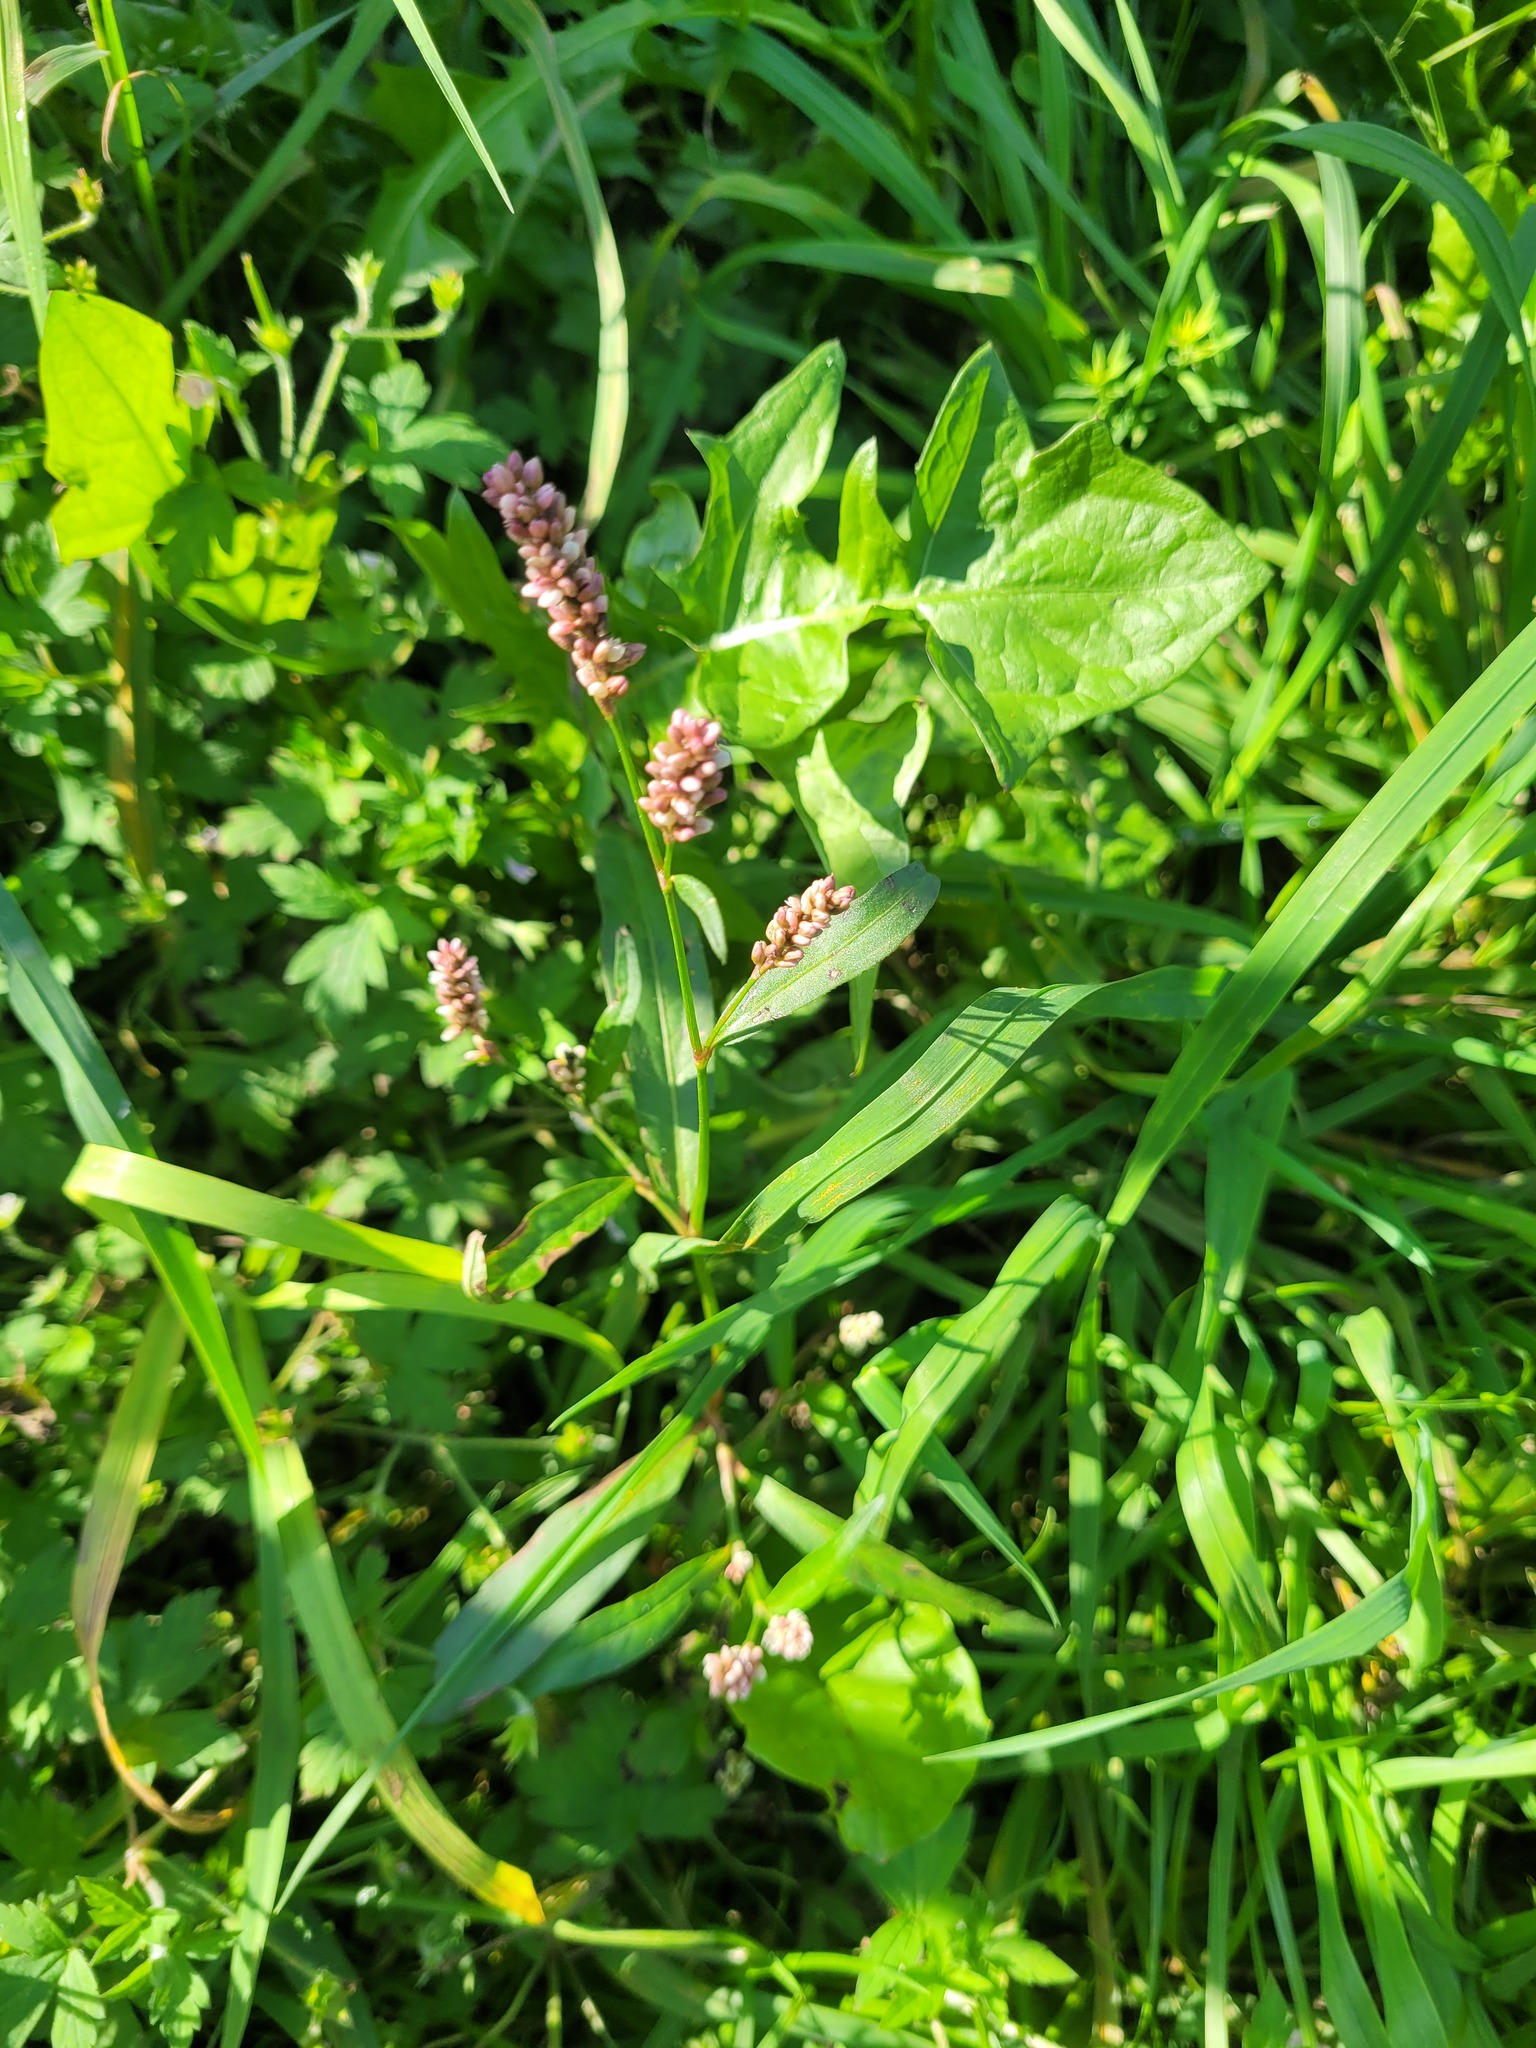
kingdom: Plantae
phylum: Tracheophyta
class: Magnoliopsida
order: Caryophyllales
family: Polygonaceae
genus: Persicaria
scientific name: Persicaria maculosa
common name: Redshank
